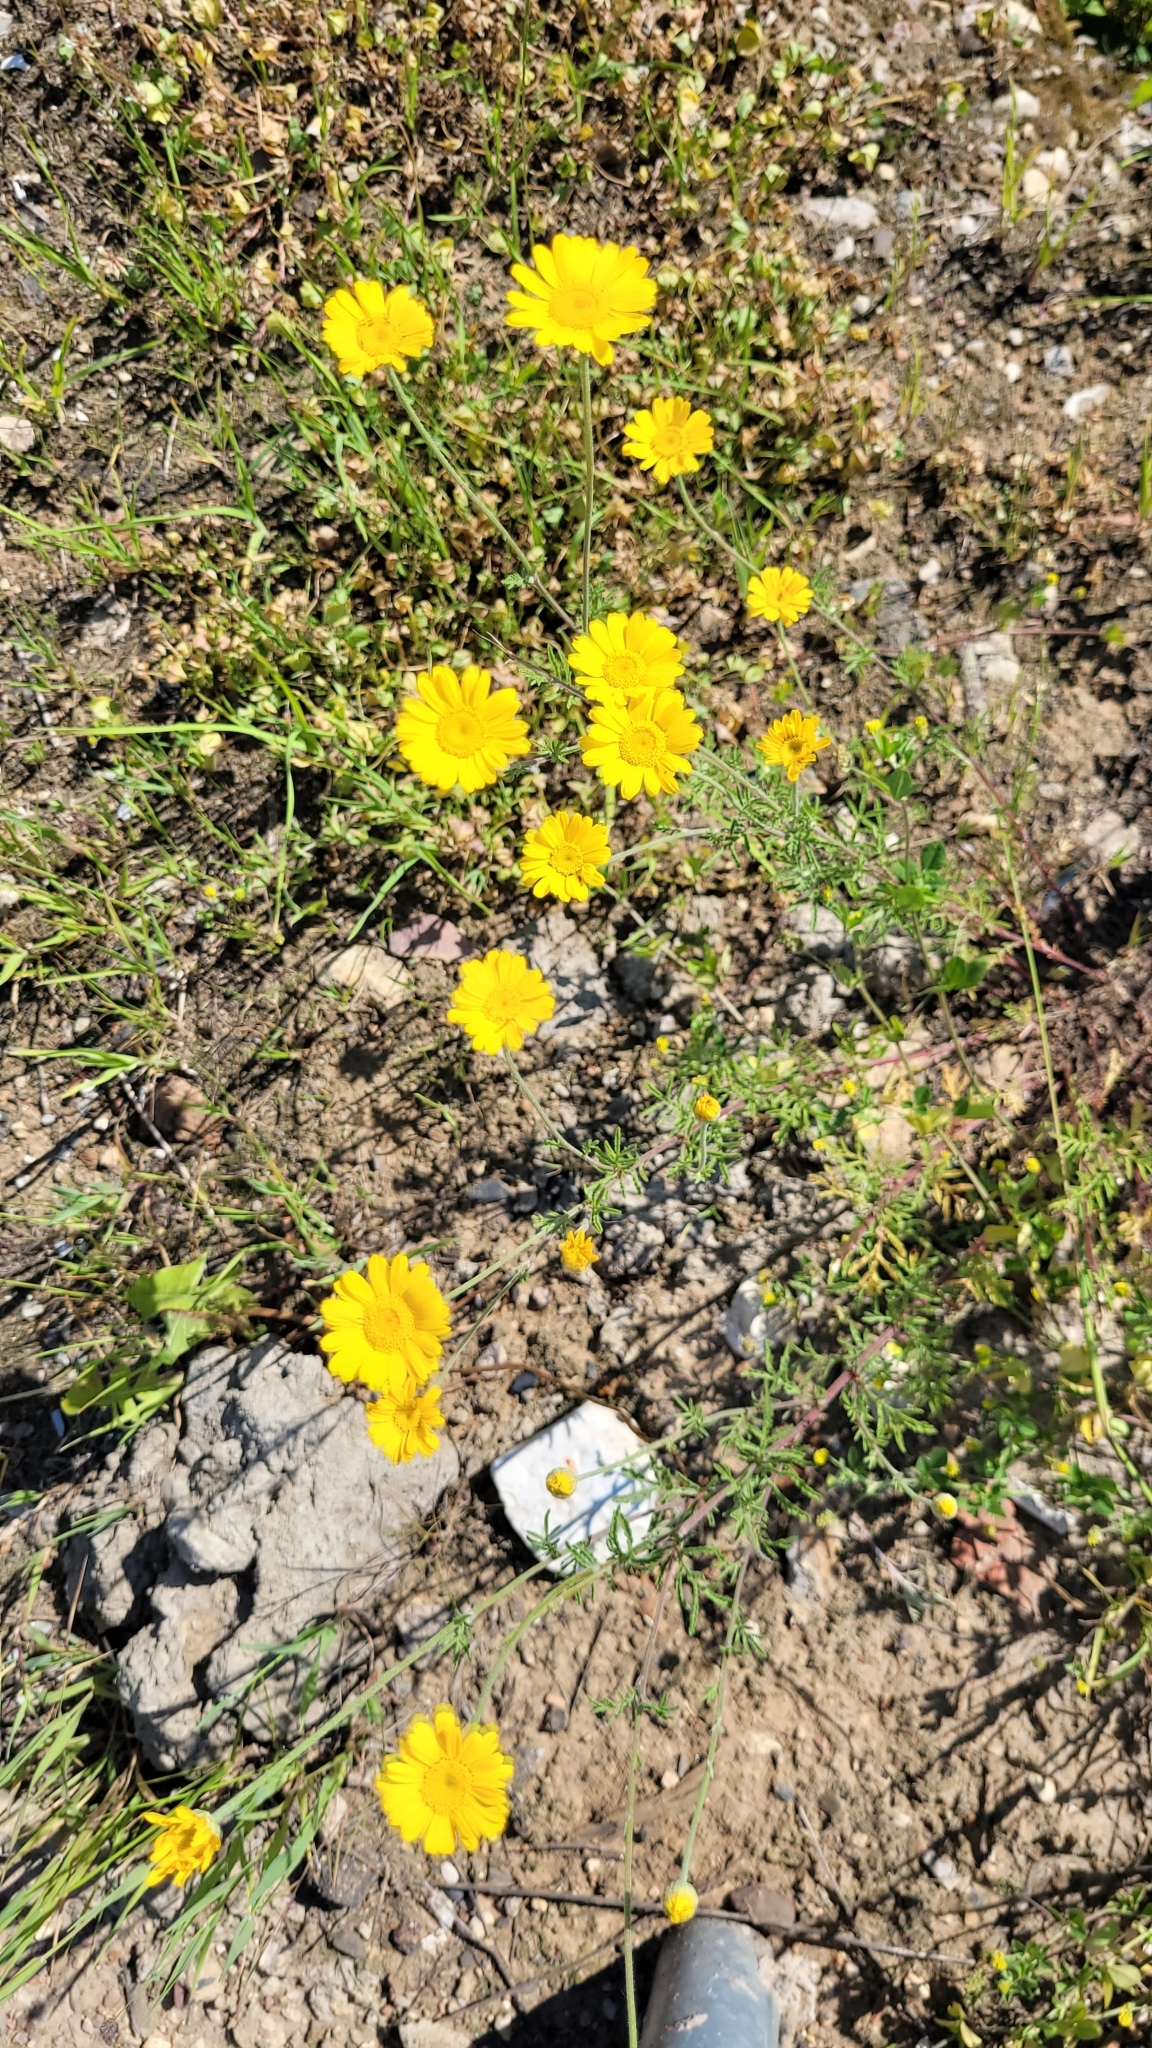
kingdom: Plantae
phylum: Tracheophyta
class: Magnoliopsida
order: Asterales
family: Asteraceae
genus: Cota
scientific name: Cota tinctoria
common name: Golden chamomile
